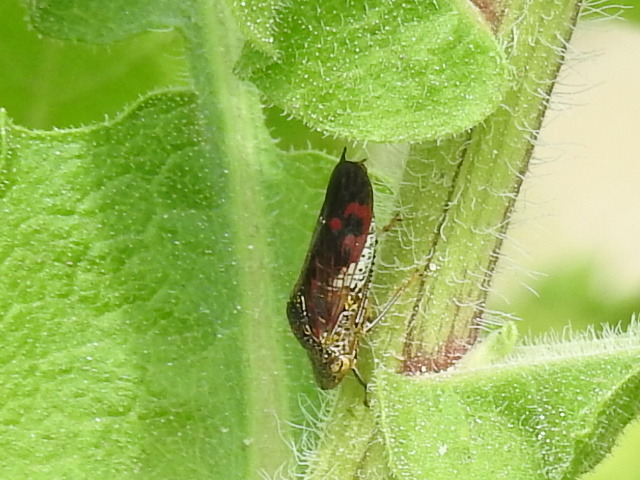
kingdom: Animalia
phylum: Arthropoda
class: Insecta
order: Hemiptera
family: Cicadellidae
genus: Homalodisca
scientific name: Homalodisca vitripennis
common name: Glassy-winged sharpshooter
